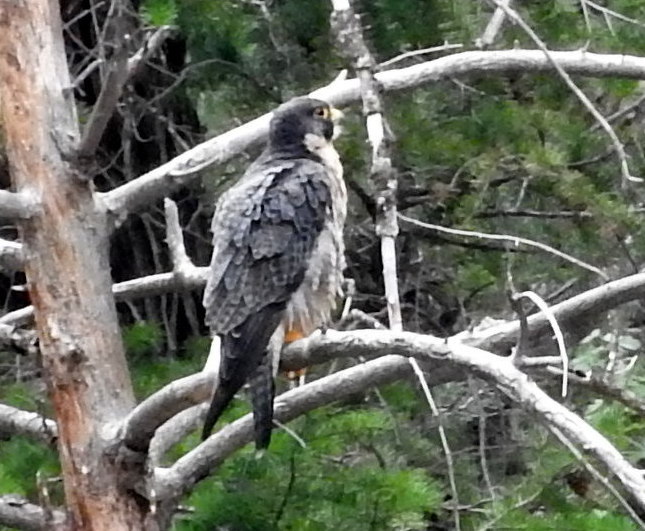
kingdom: Animalia
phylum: Chordata
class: Aves
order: Falconiformes
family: Falconidae
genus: Falco
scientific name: Falco peregrinus
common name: Peregrine falcon
